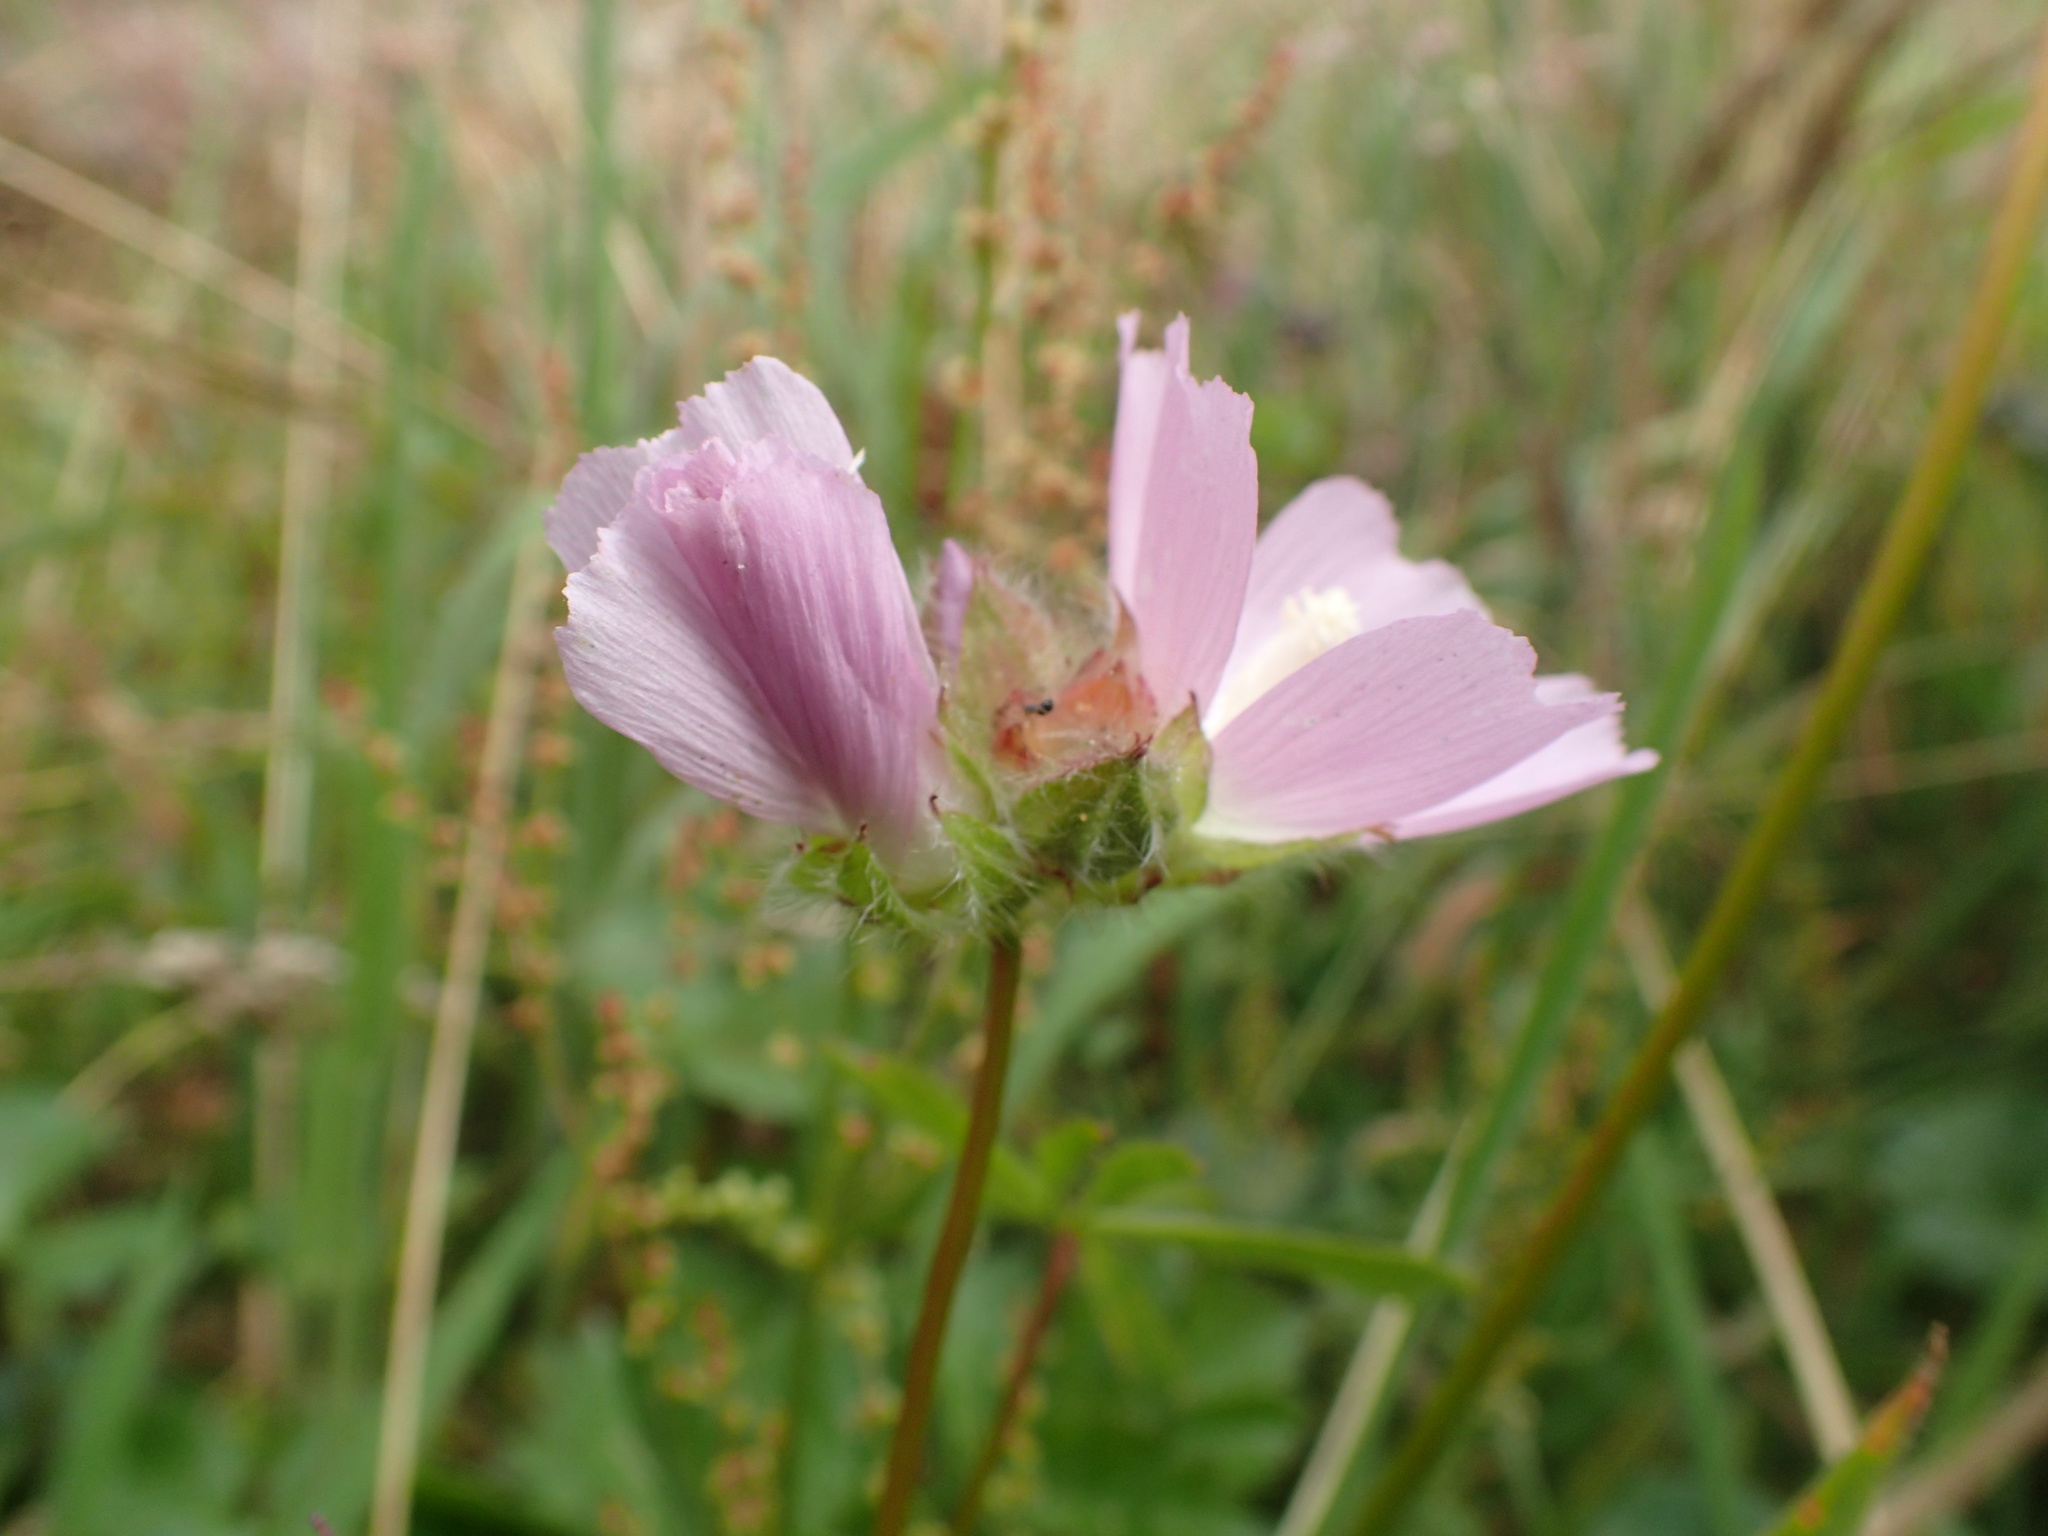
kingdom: Plantae
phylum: Tracheophyta
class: Magnoliopsida
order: Malvales
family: Malvaceae
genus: Sidalcea
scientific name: Sidalcea calycosa
